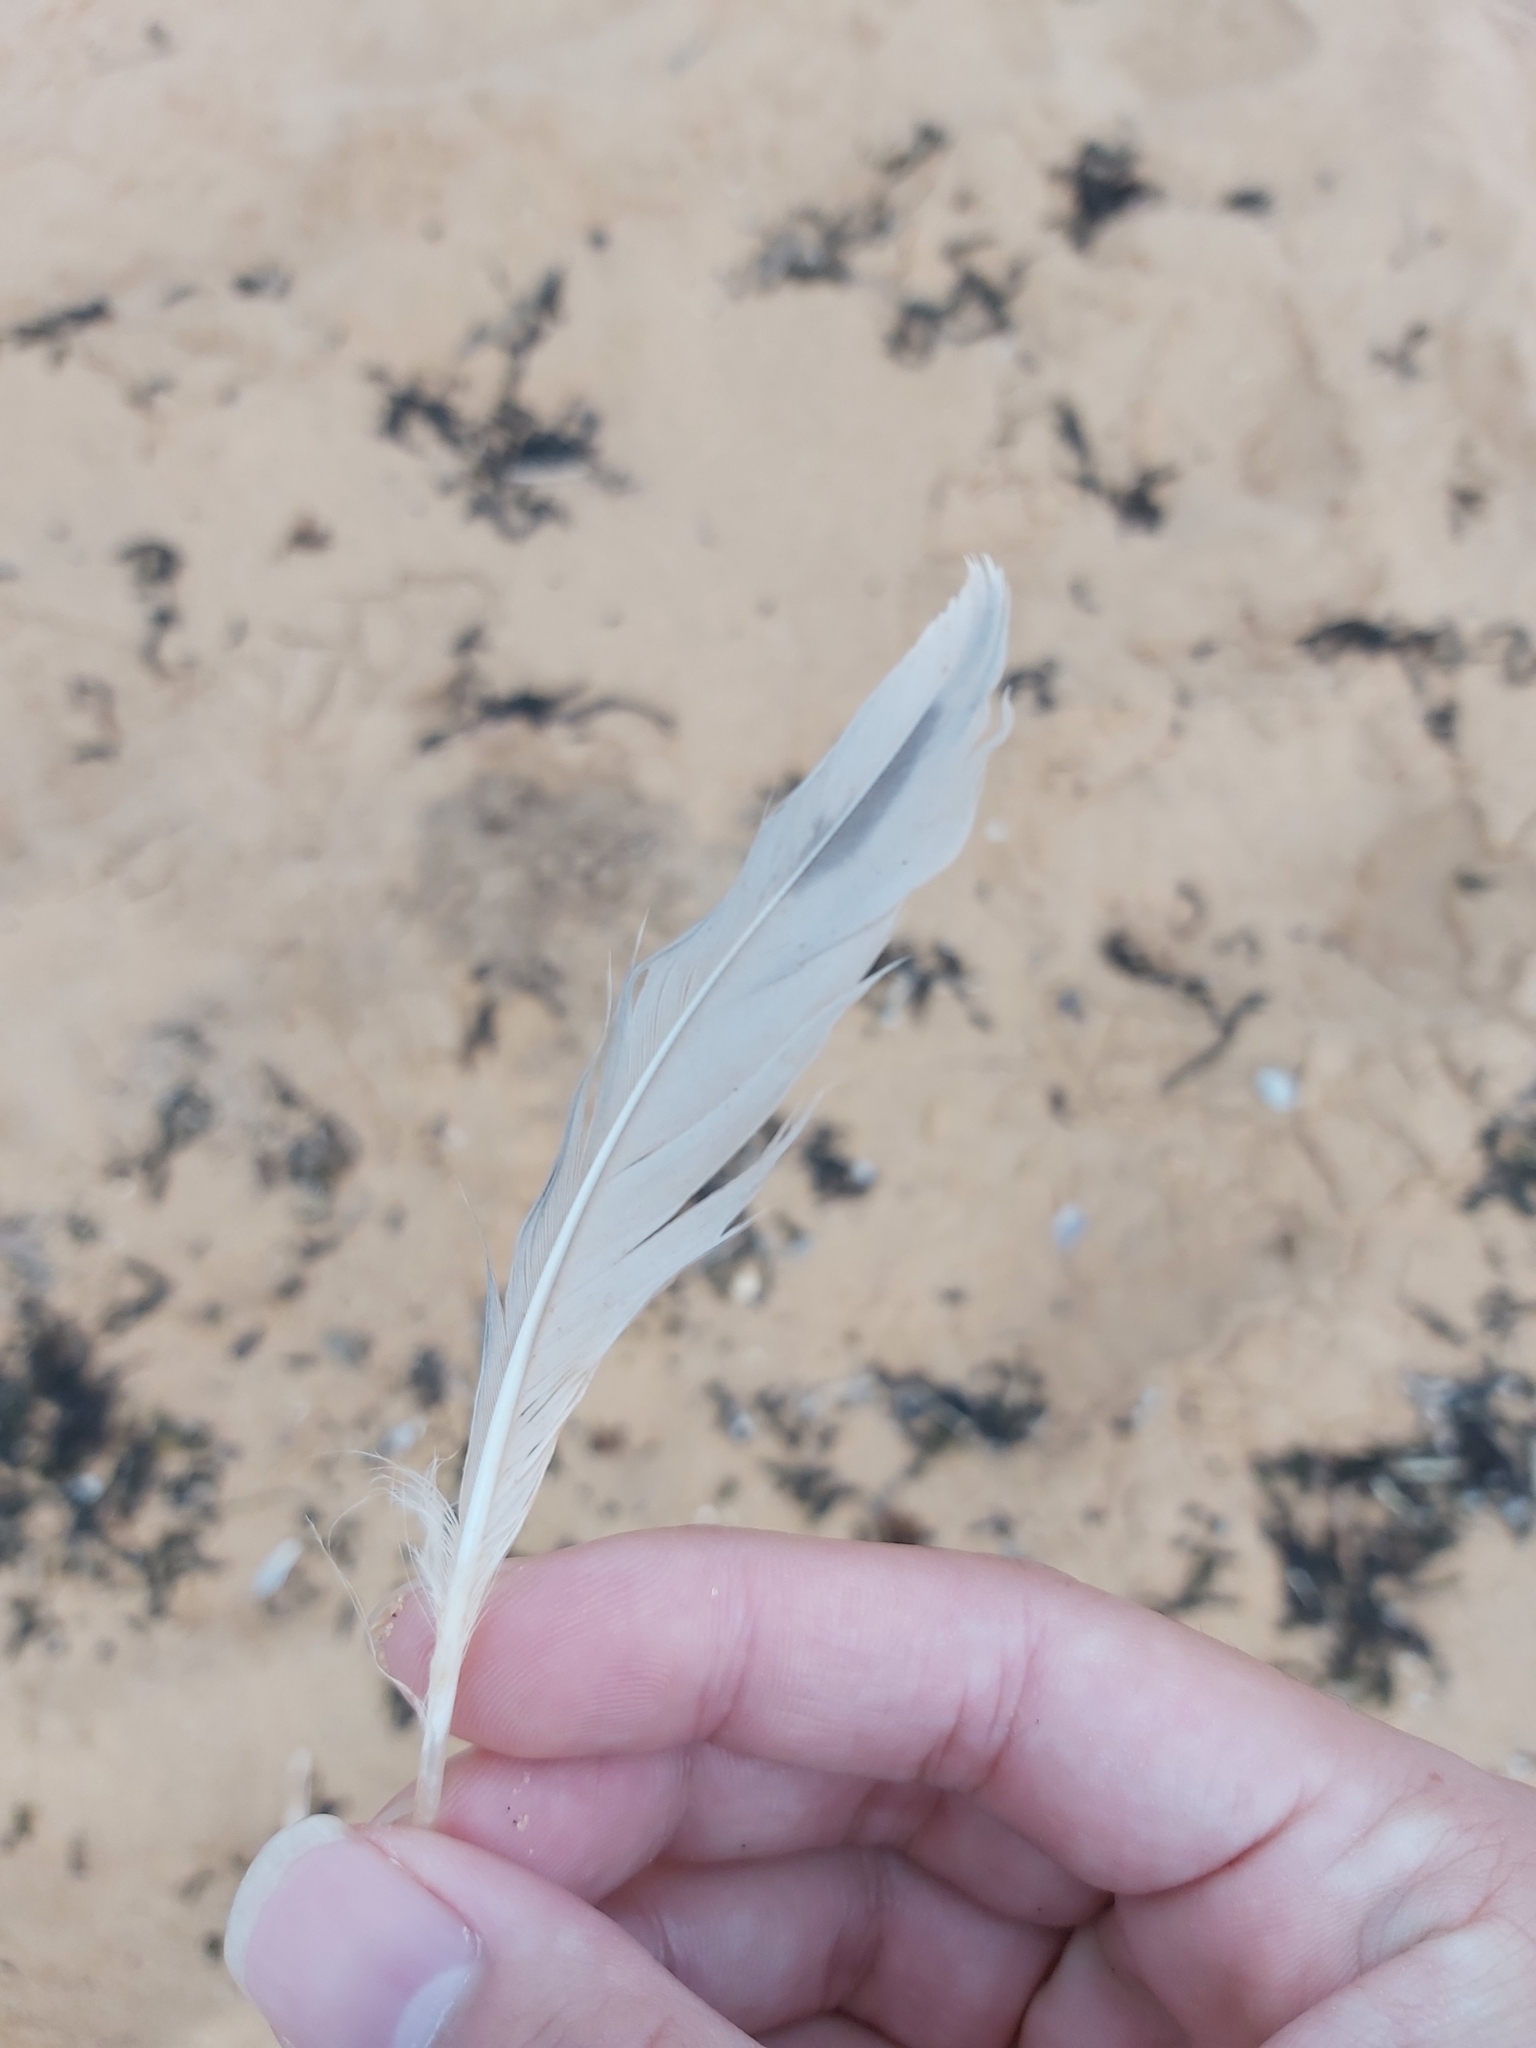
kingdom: Animalia
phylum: Chordata
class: Aves
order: Charadriiformes
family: Laridae
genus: Chroicocephalus
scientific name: Chroicocephalus novaehollandiae
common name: Silver gull
